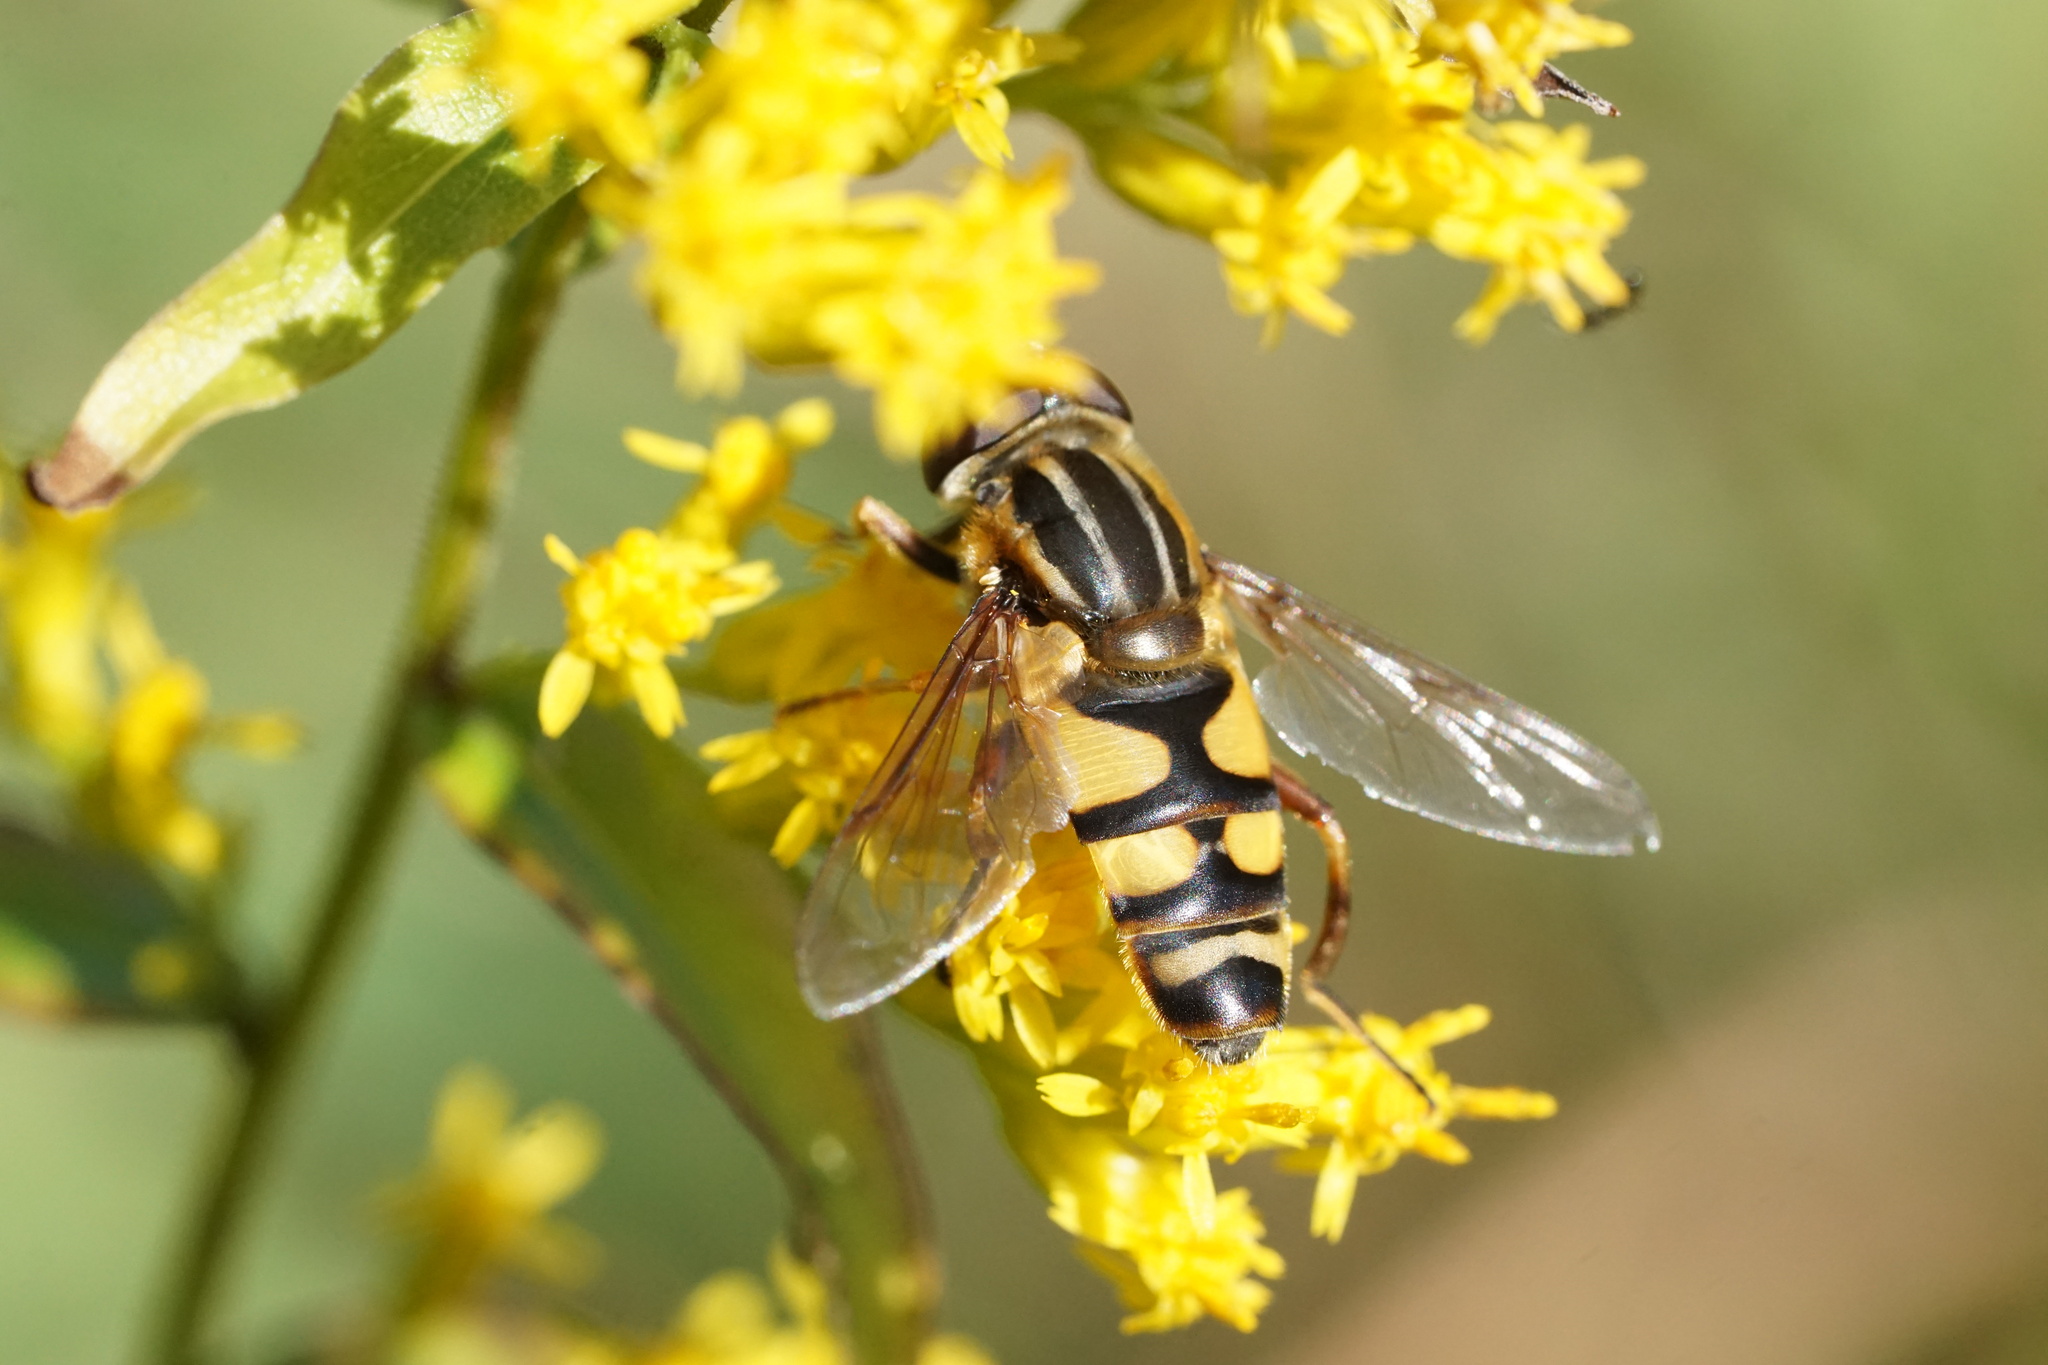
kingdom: Animalia
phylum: Arthropoda
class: Insecta
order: Diptera
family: Syrphidae
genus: Helophilus
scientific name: Helophilus fasciatus
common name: Narrow-headed marsh fly
